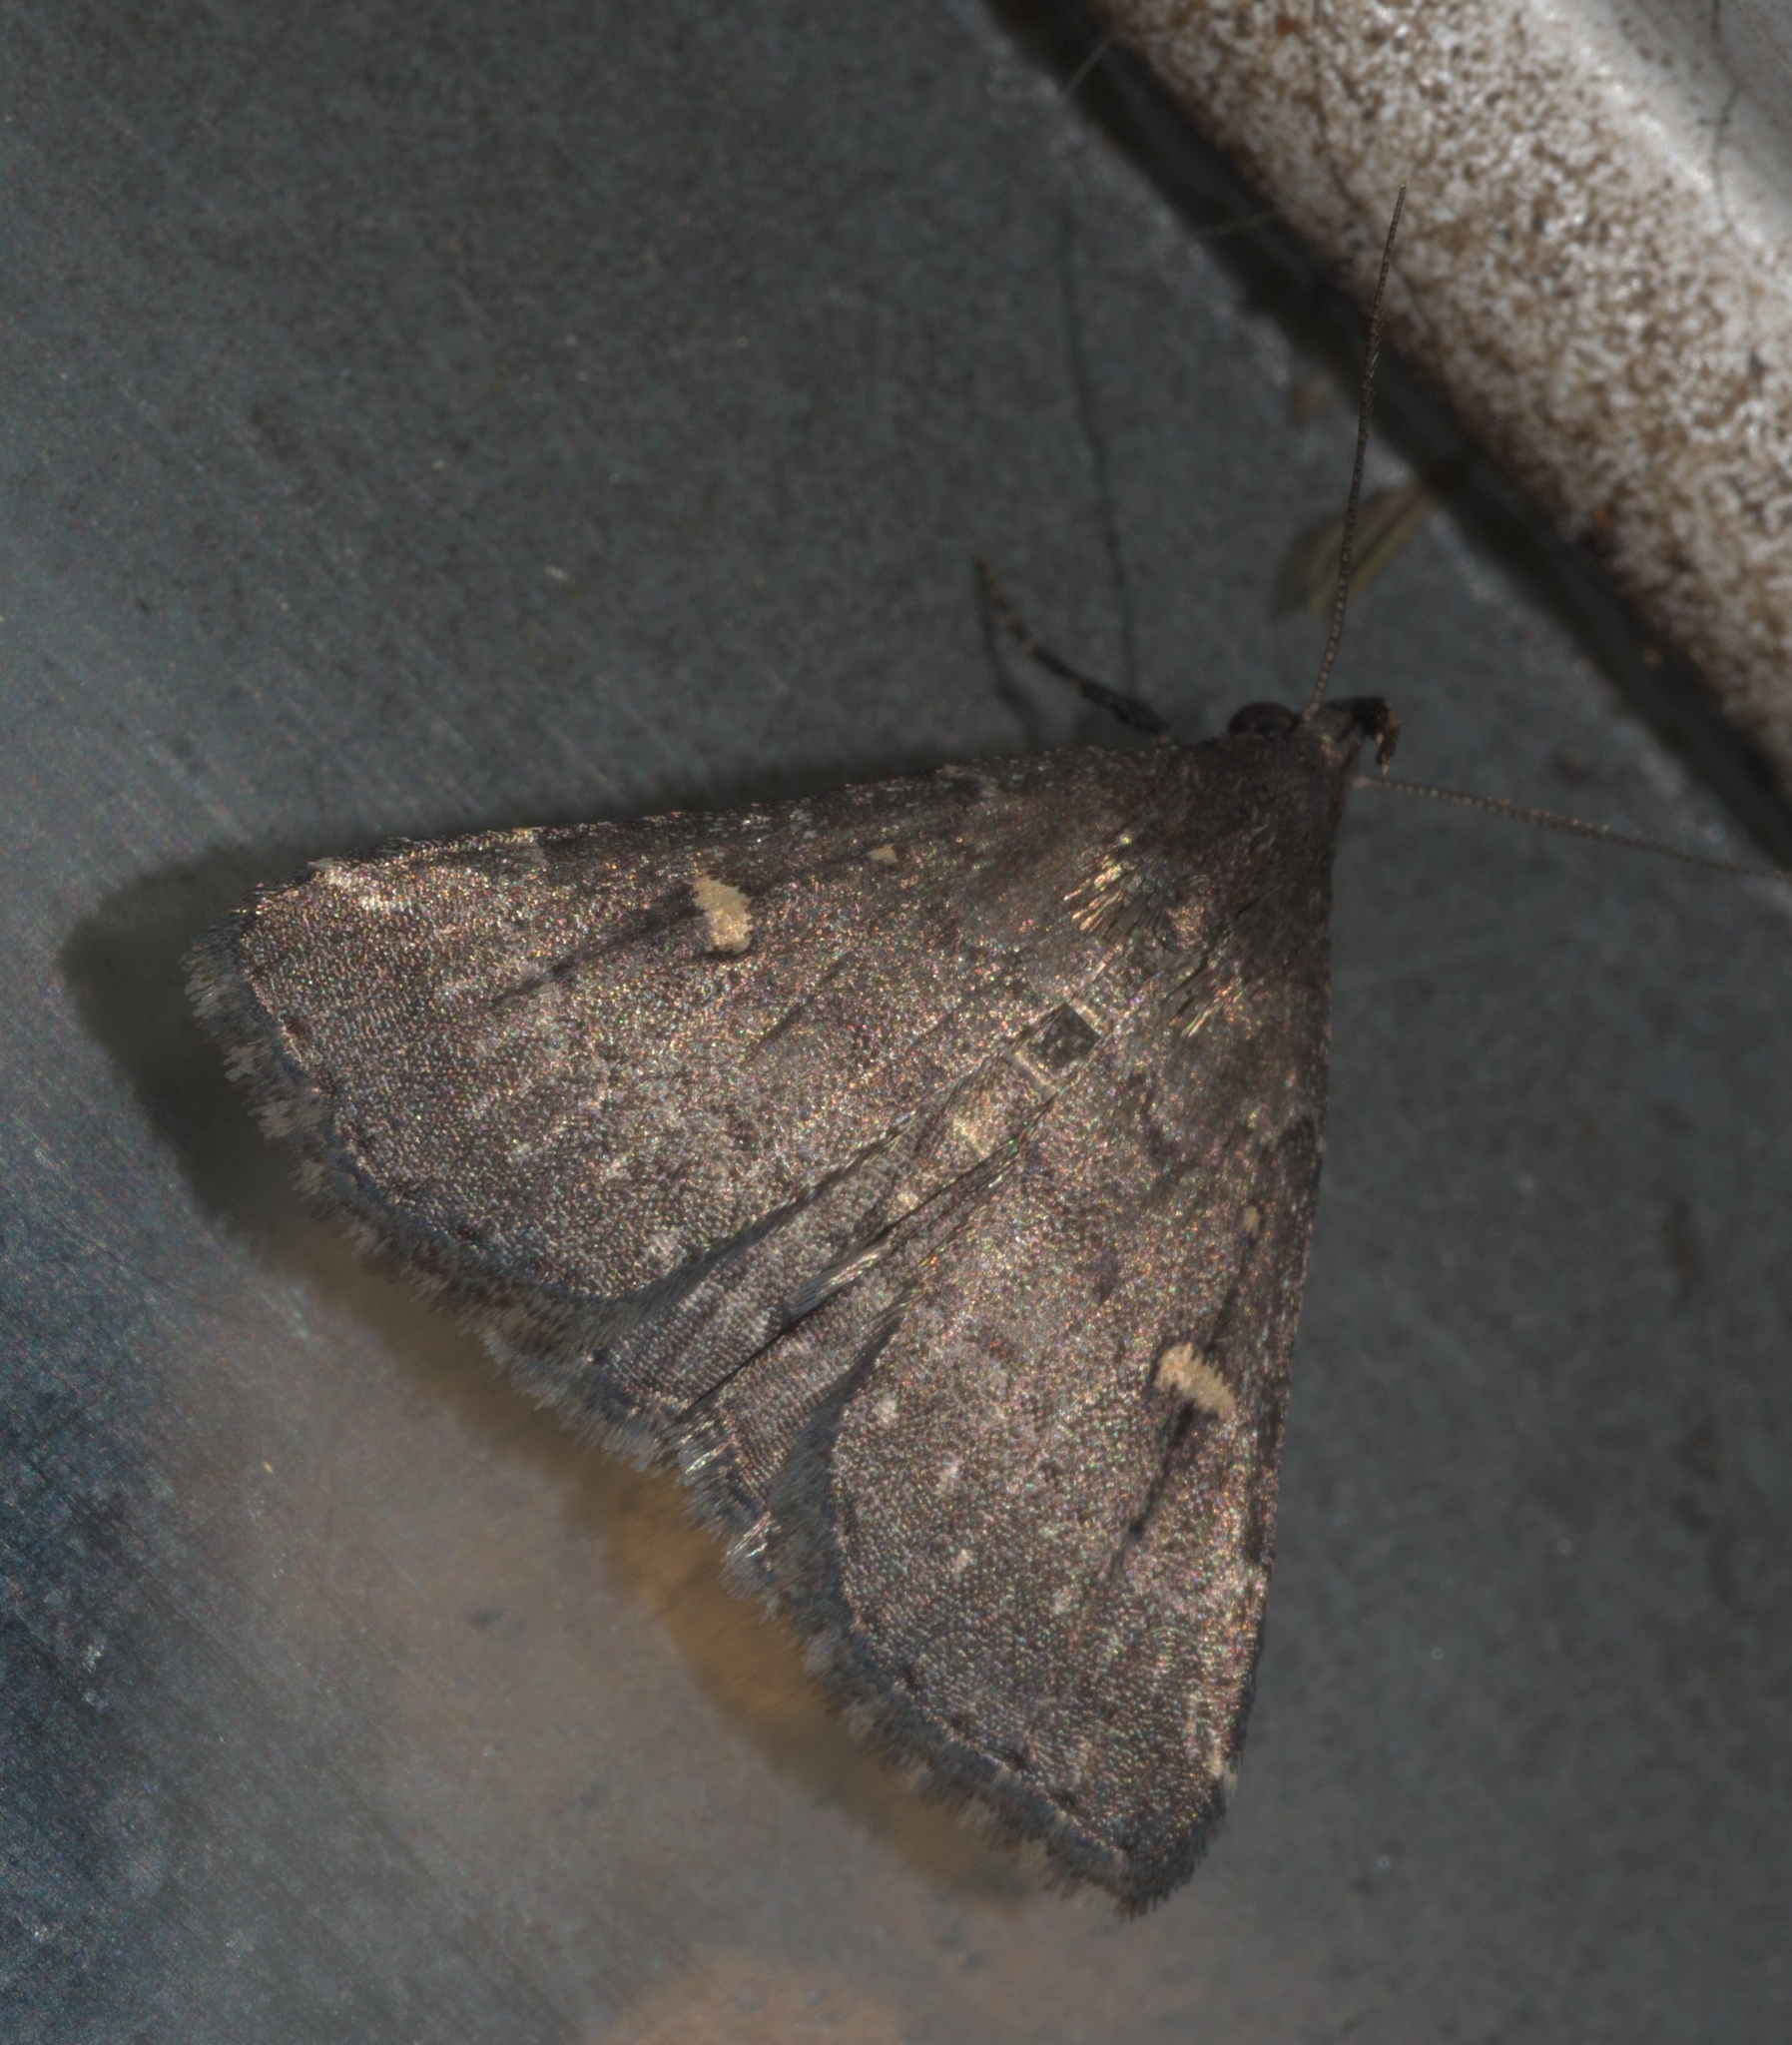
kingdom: Animalia
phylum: Arthropoda
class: Insecta
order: Lepidoptera
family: Erebidae
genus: Tetanolita
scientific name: Tetanolita mynesalis
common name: Smoky tetanolita moth
